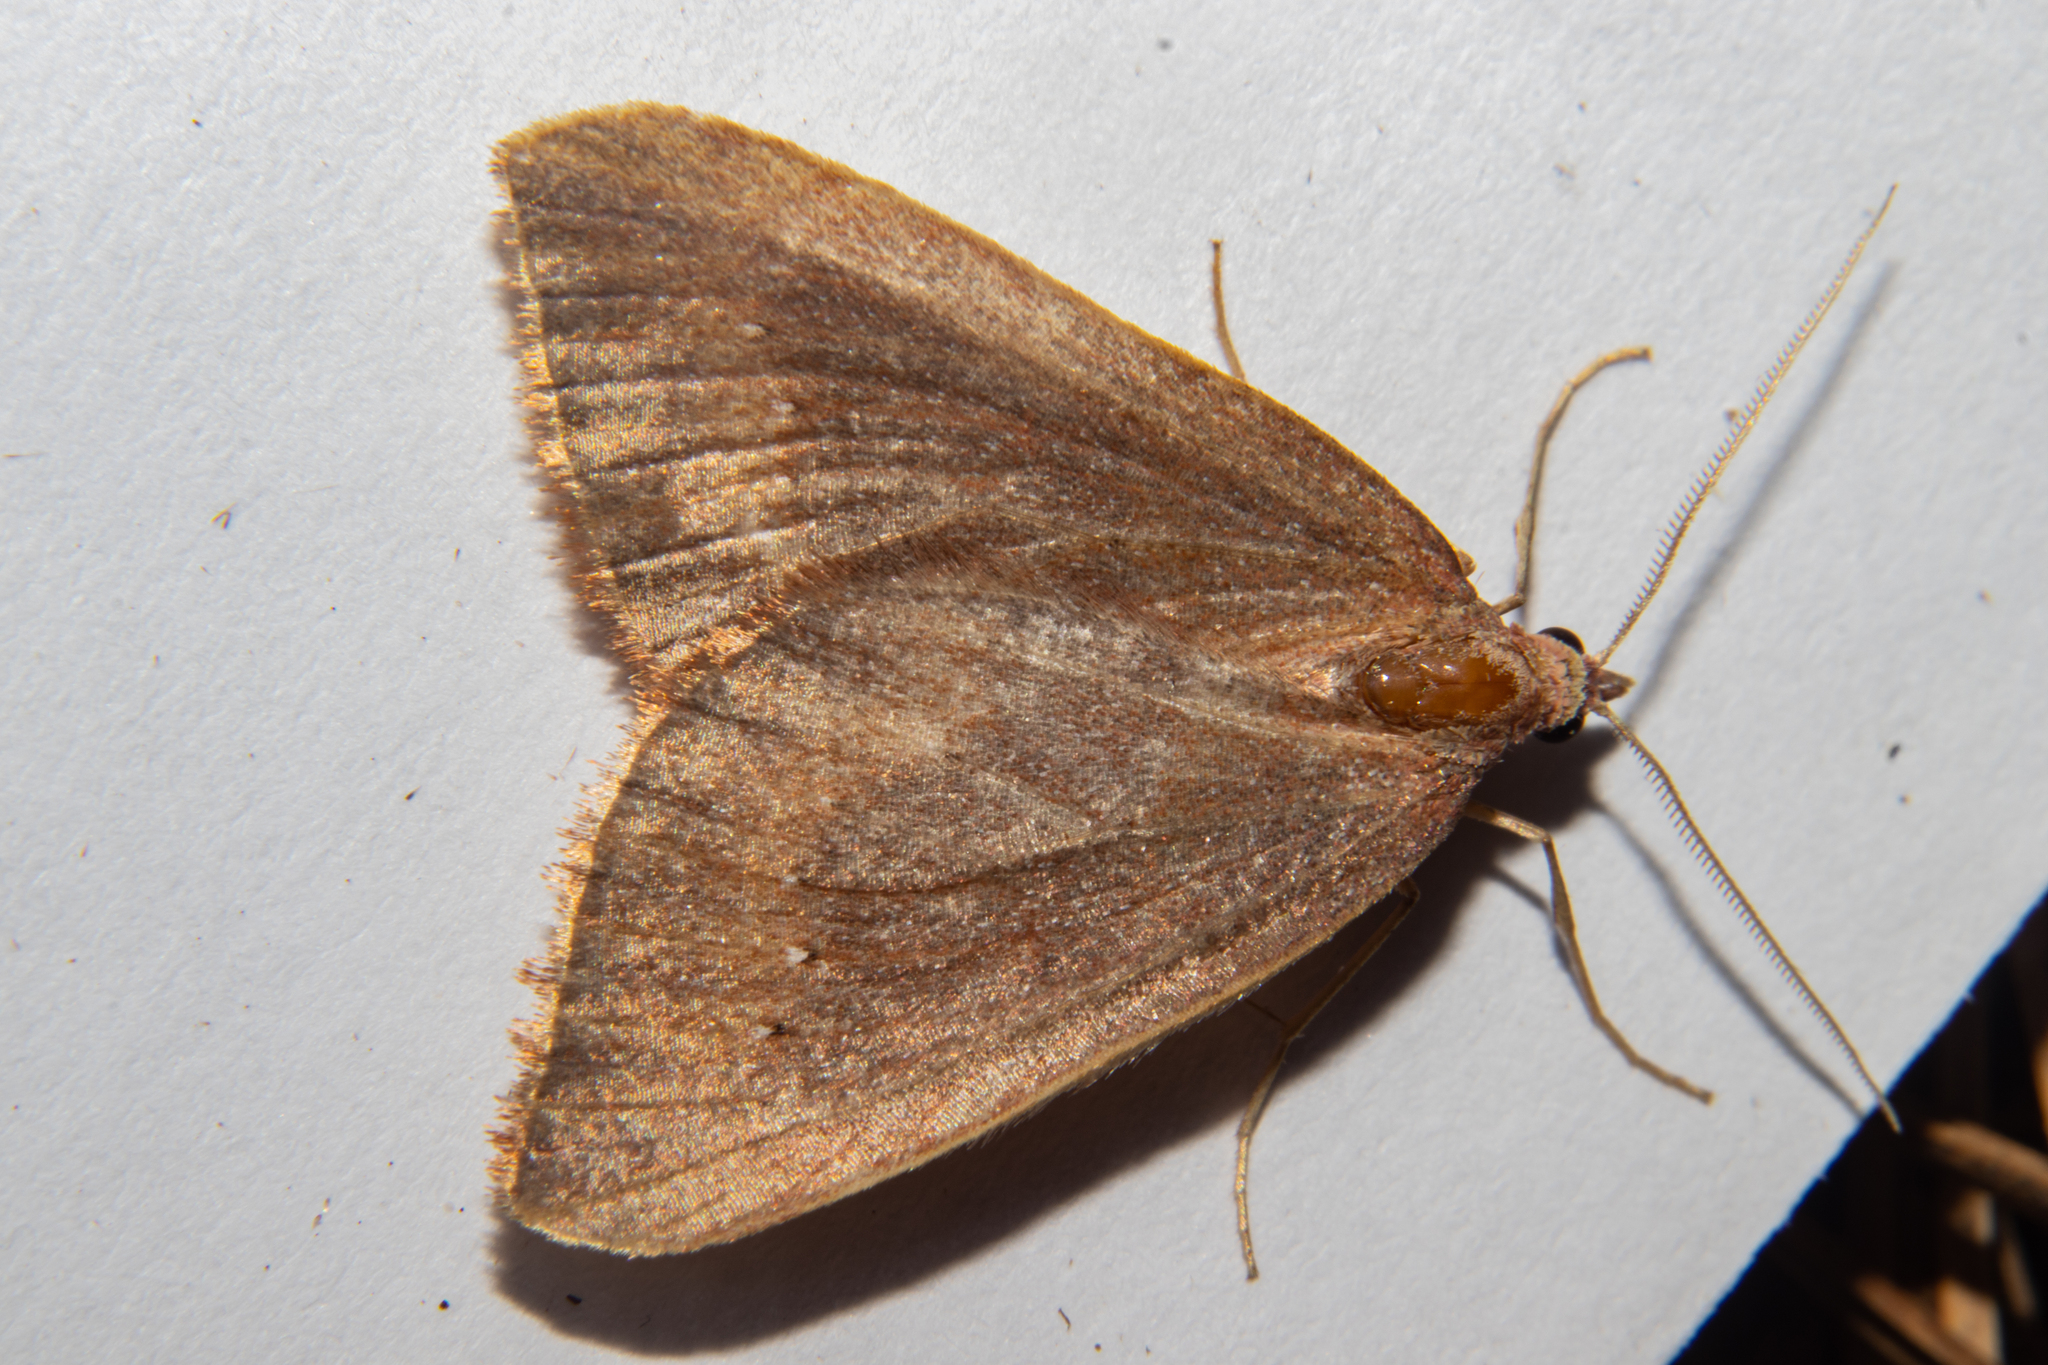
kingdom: Animalia
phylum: Arthropoda
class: Insecta
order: Lepidoptera
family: Geometridae
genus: Xanthorhoe
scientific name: Xanthorhoe occulta
